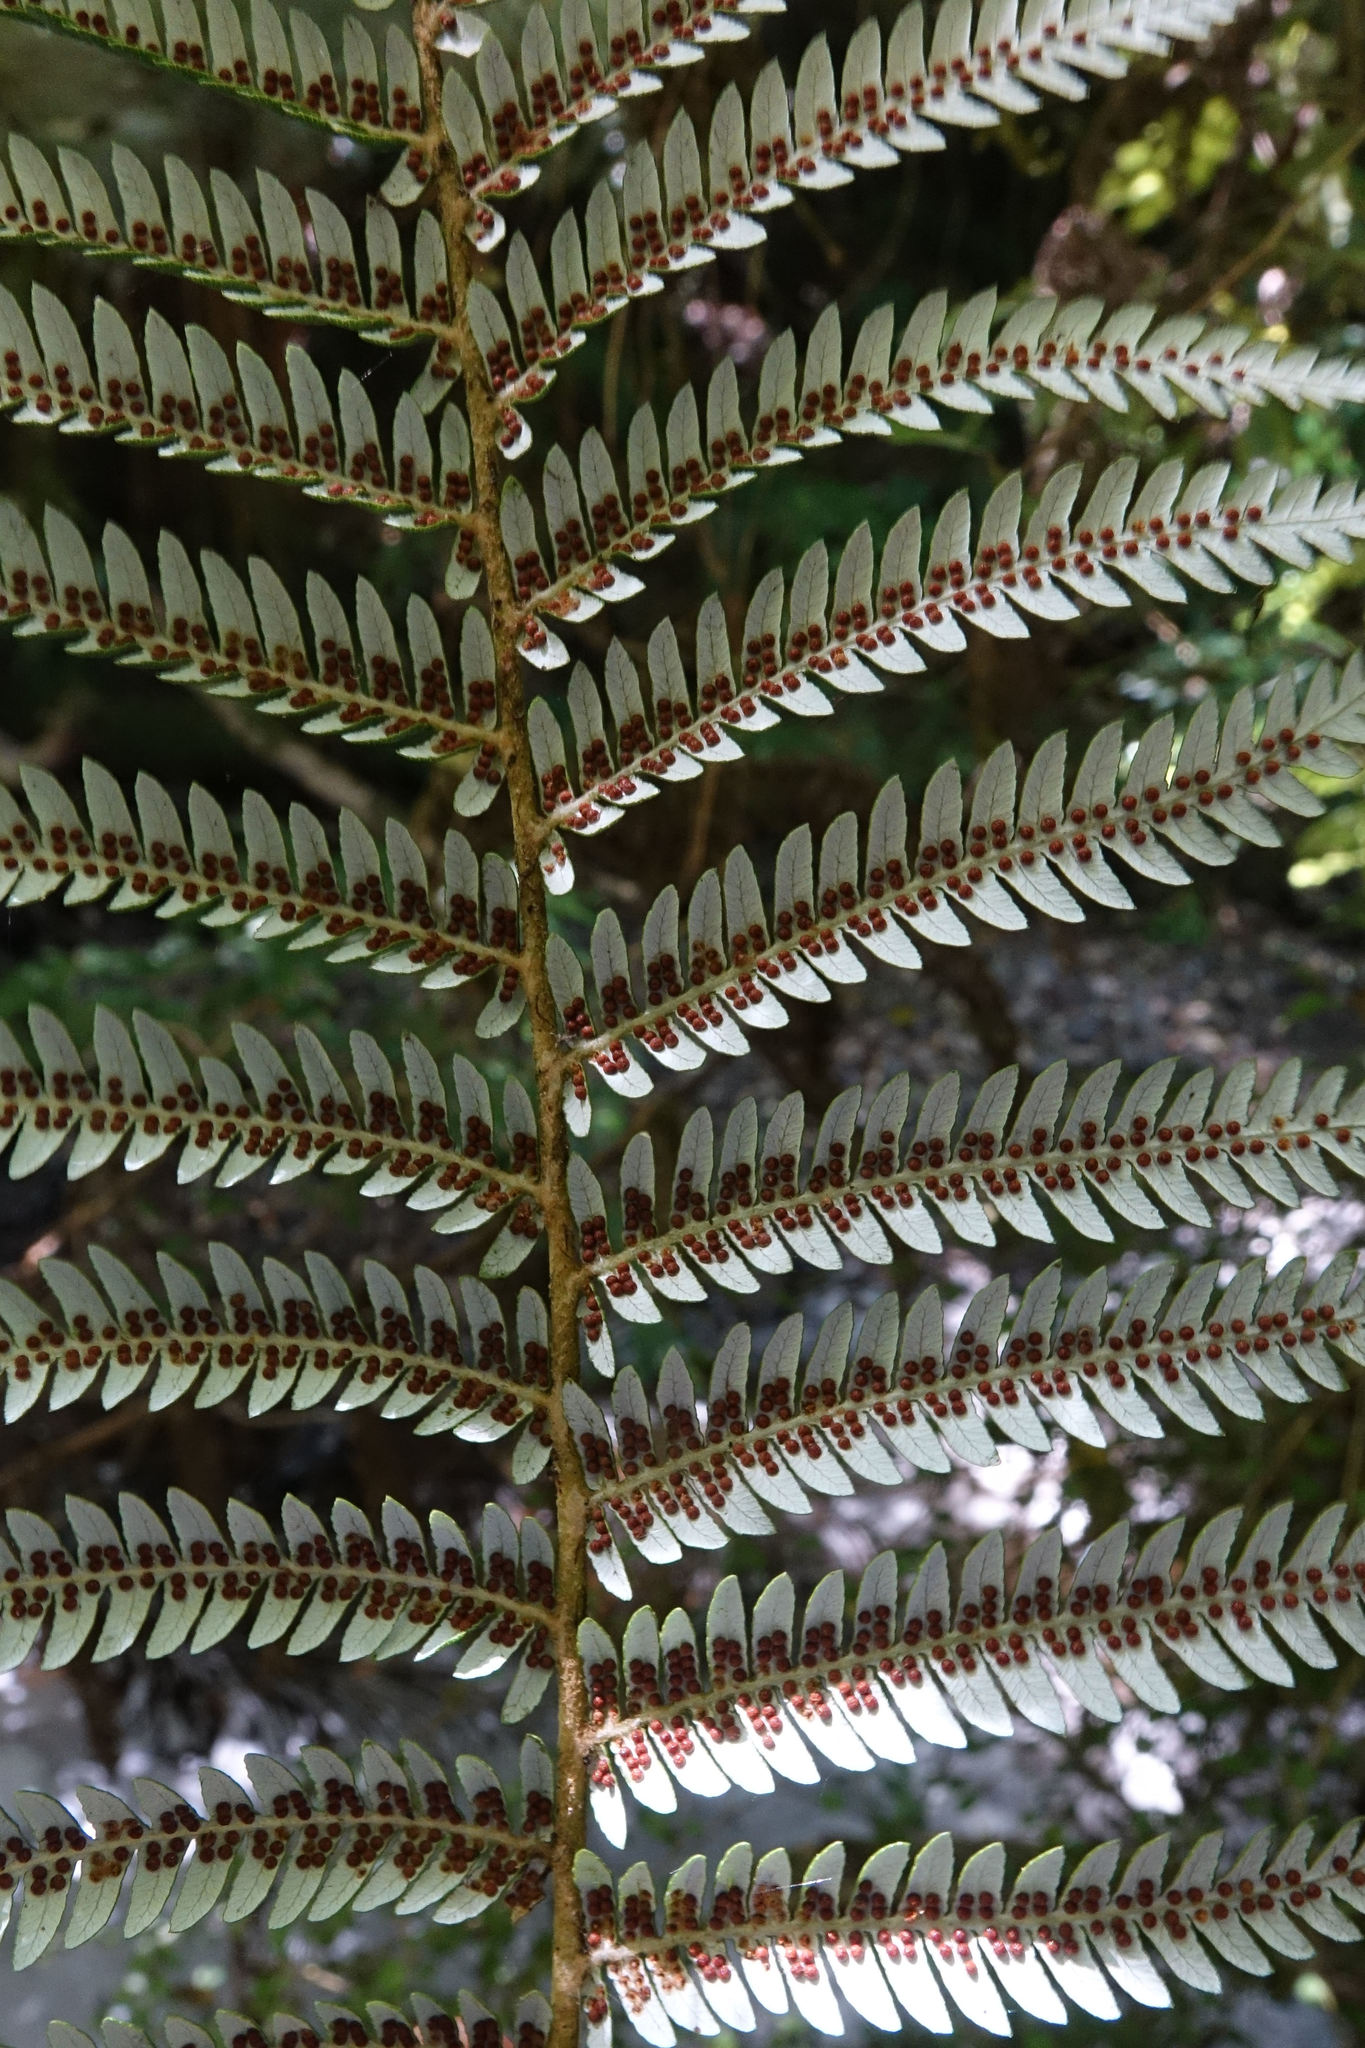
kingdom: Plantae
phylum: Tracheophyta
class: Polypodiopsida
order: Cyatheales
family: Cyatheaceae
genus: Alsophila
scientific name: Alsophila dealbata
